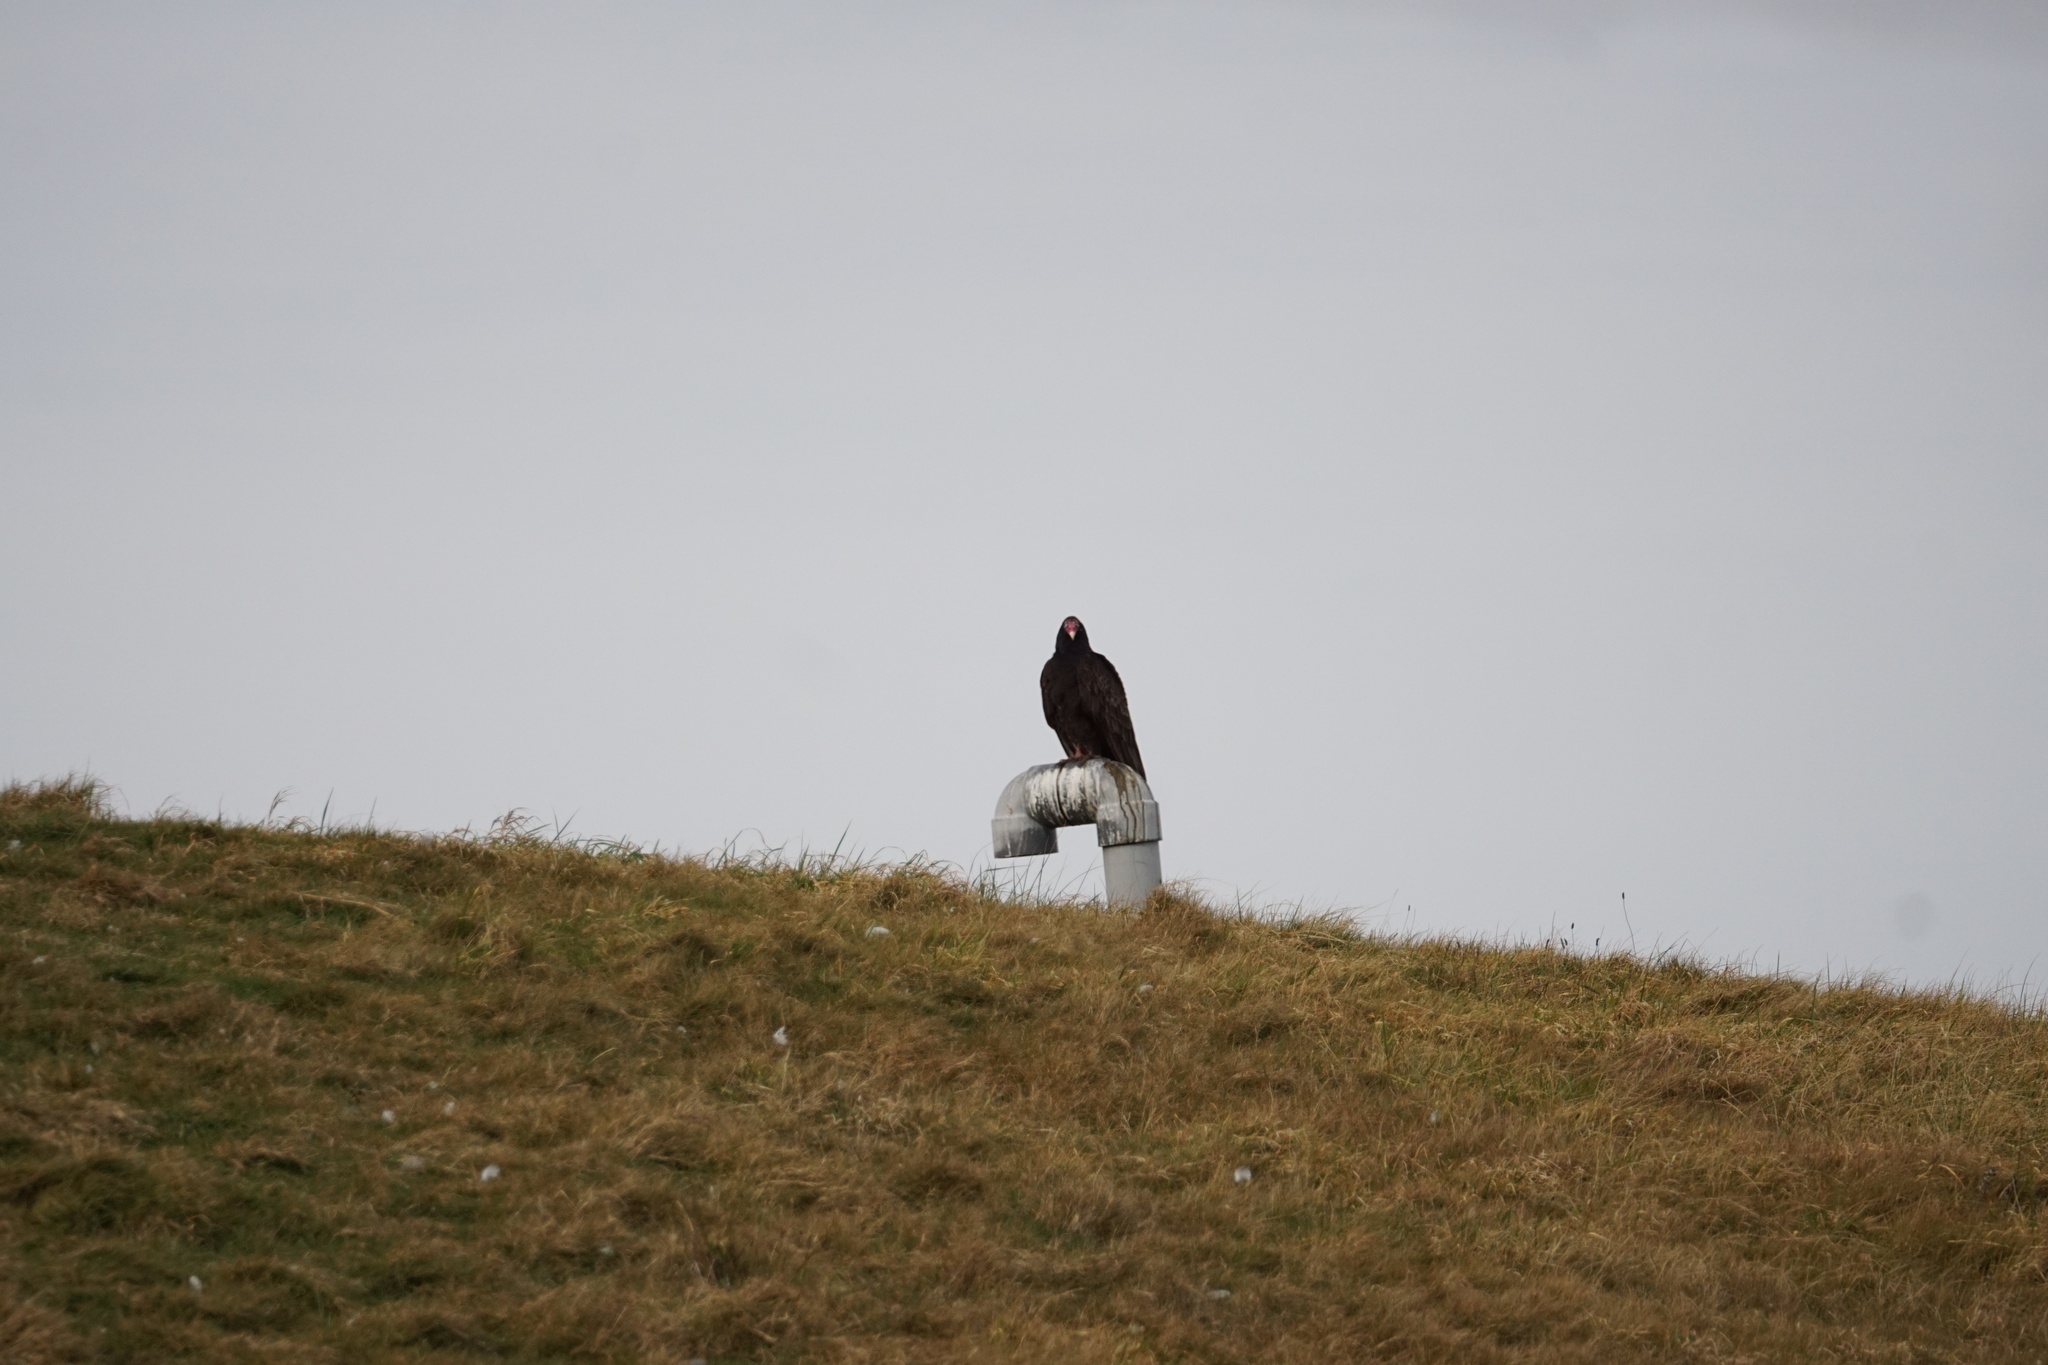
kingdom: Animalia
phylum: Chordata
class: Aves
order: Accipitriformes
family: Cathartidae
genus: Cathartes
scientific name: Cathartes aura
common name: Turkey vulture
